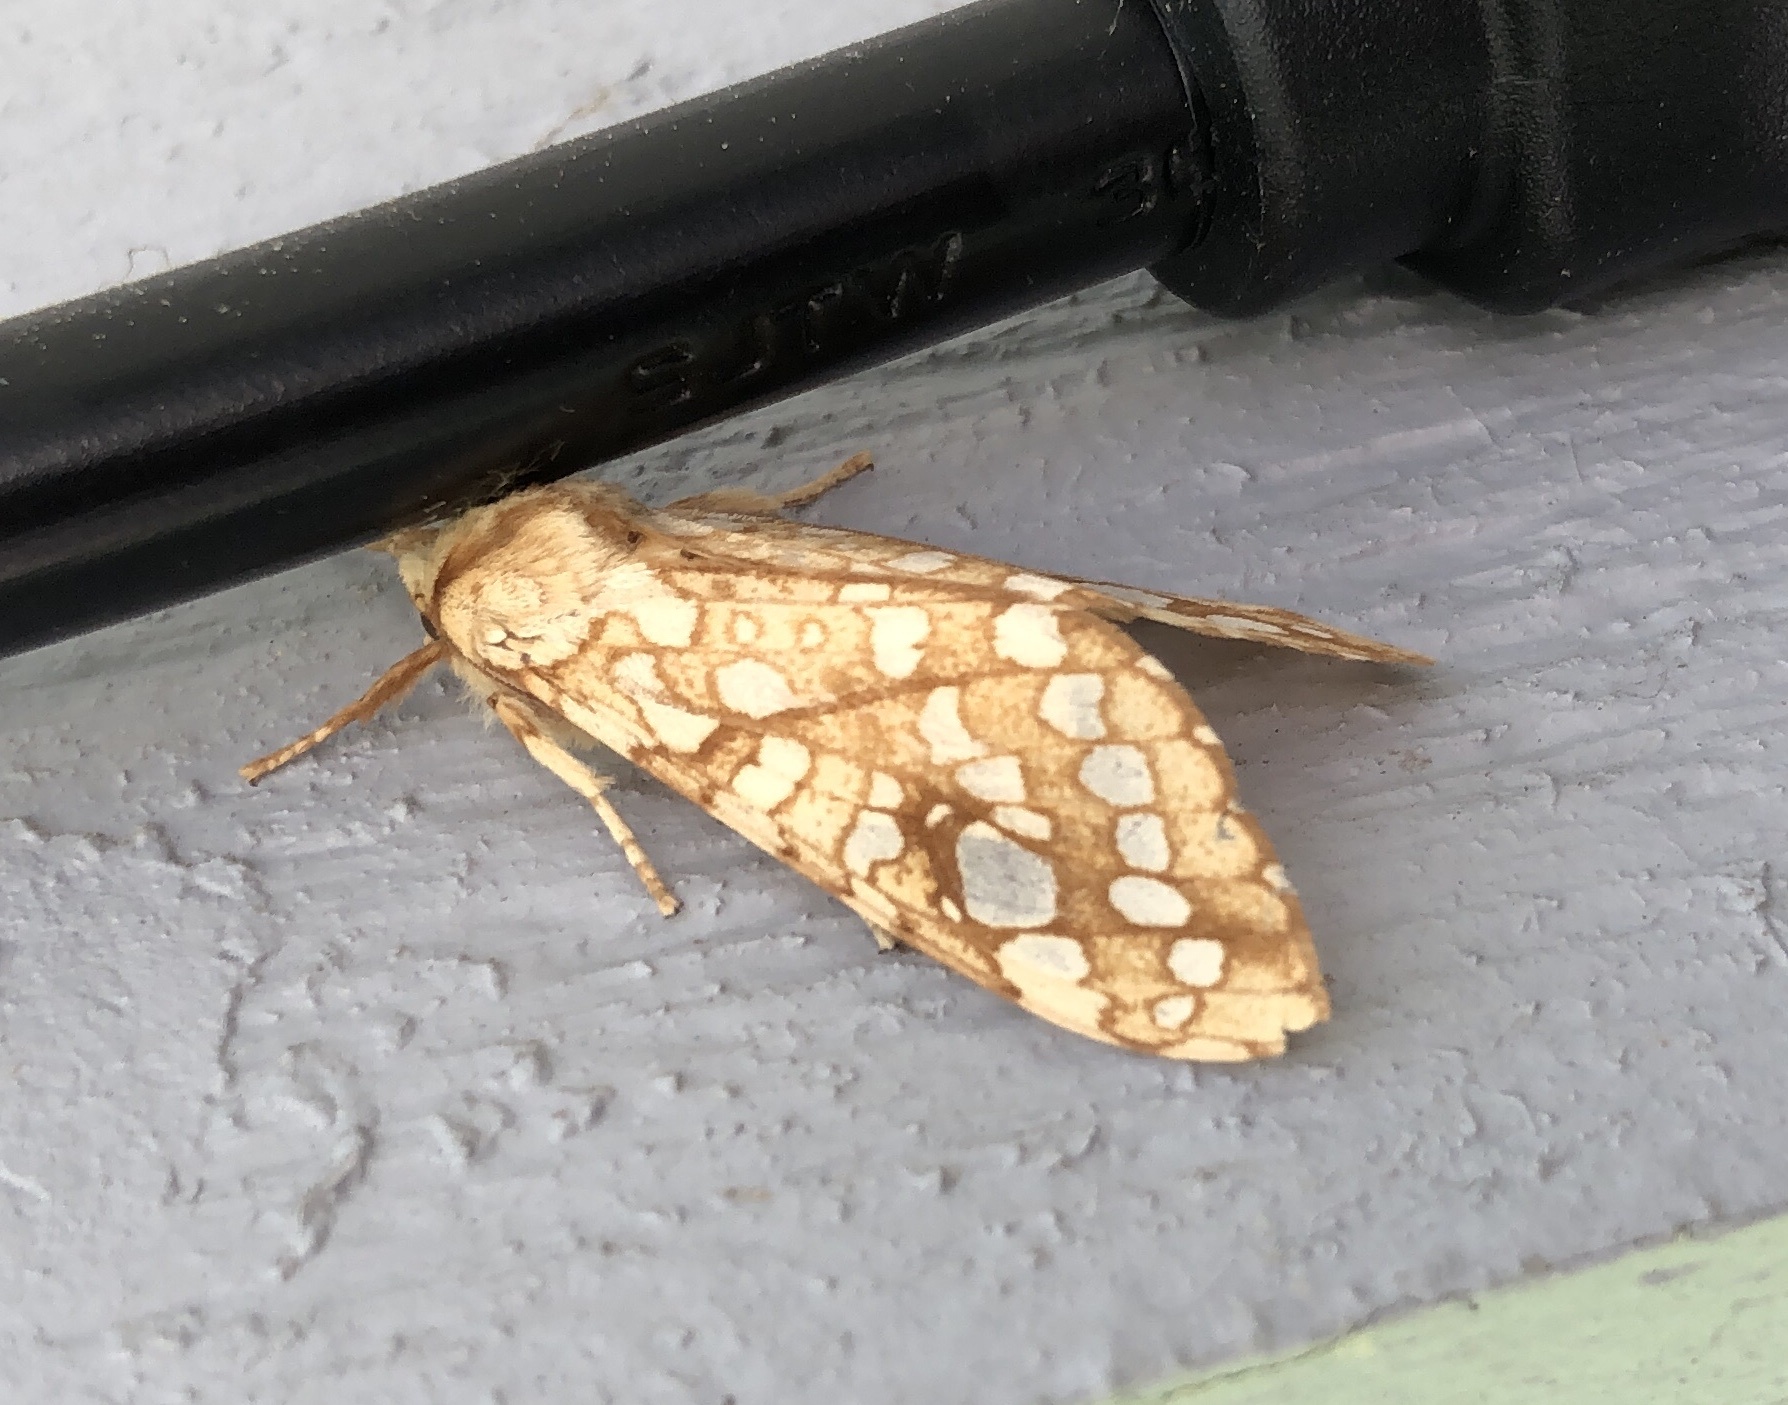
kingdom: Animalia
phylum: Arthropoda
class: Insecta
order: Lepidoptera
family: Erebidae
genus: Lophocampa
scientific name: Lophocampa caryae
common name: Hickory tussock moth
